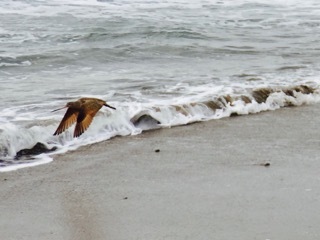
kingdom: Animalia
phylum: Chordata
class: Aves
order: Charadriiformes
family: Scolopacidae
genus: Limosa
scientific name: Limosa fedoa
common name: Marbled godwit
